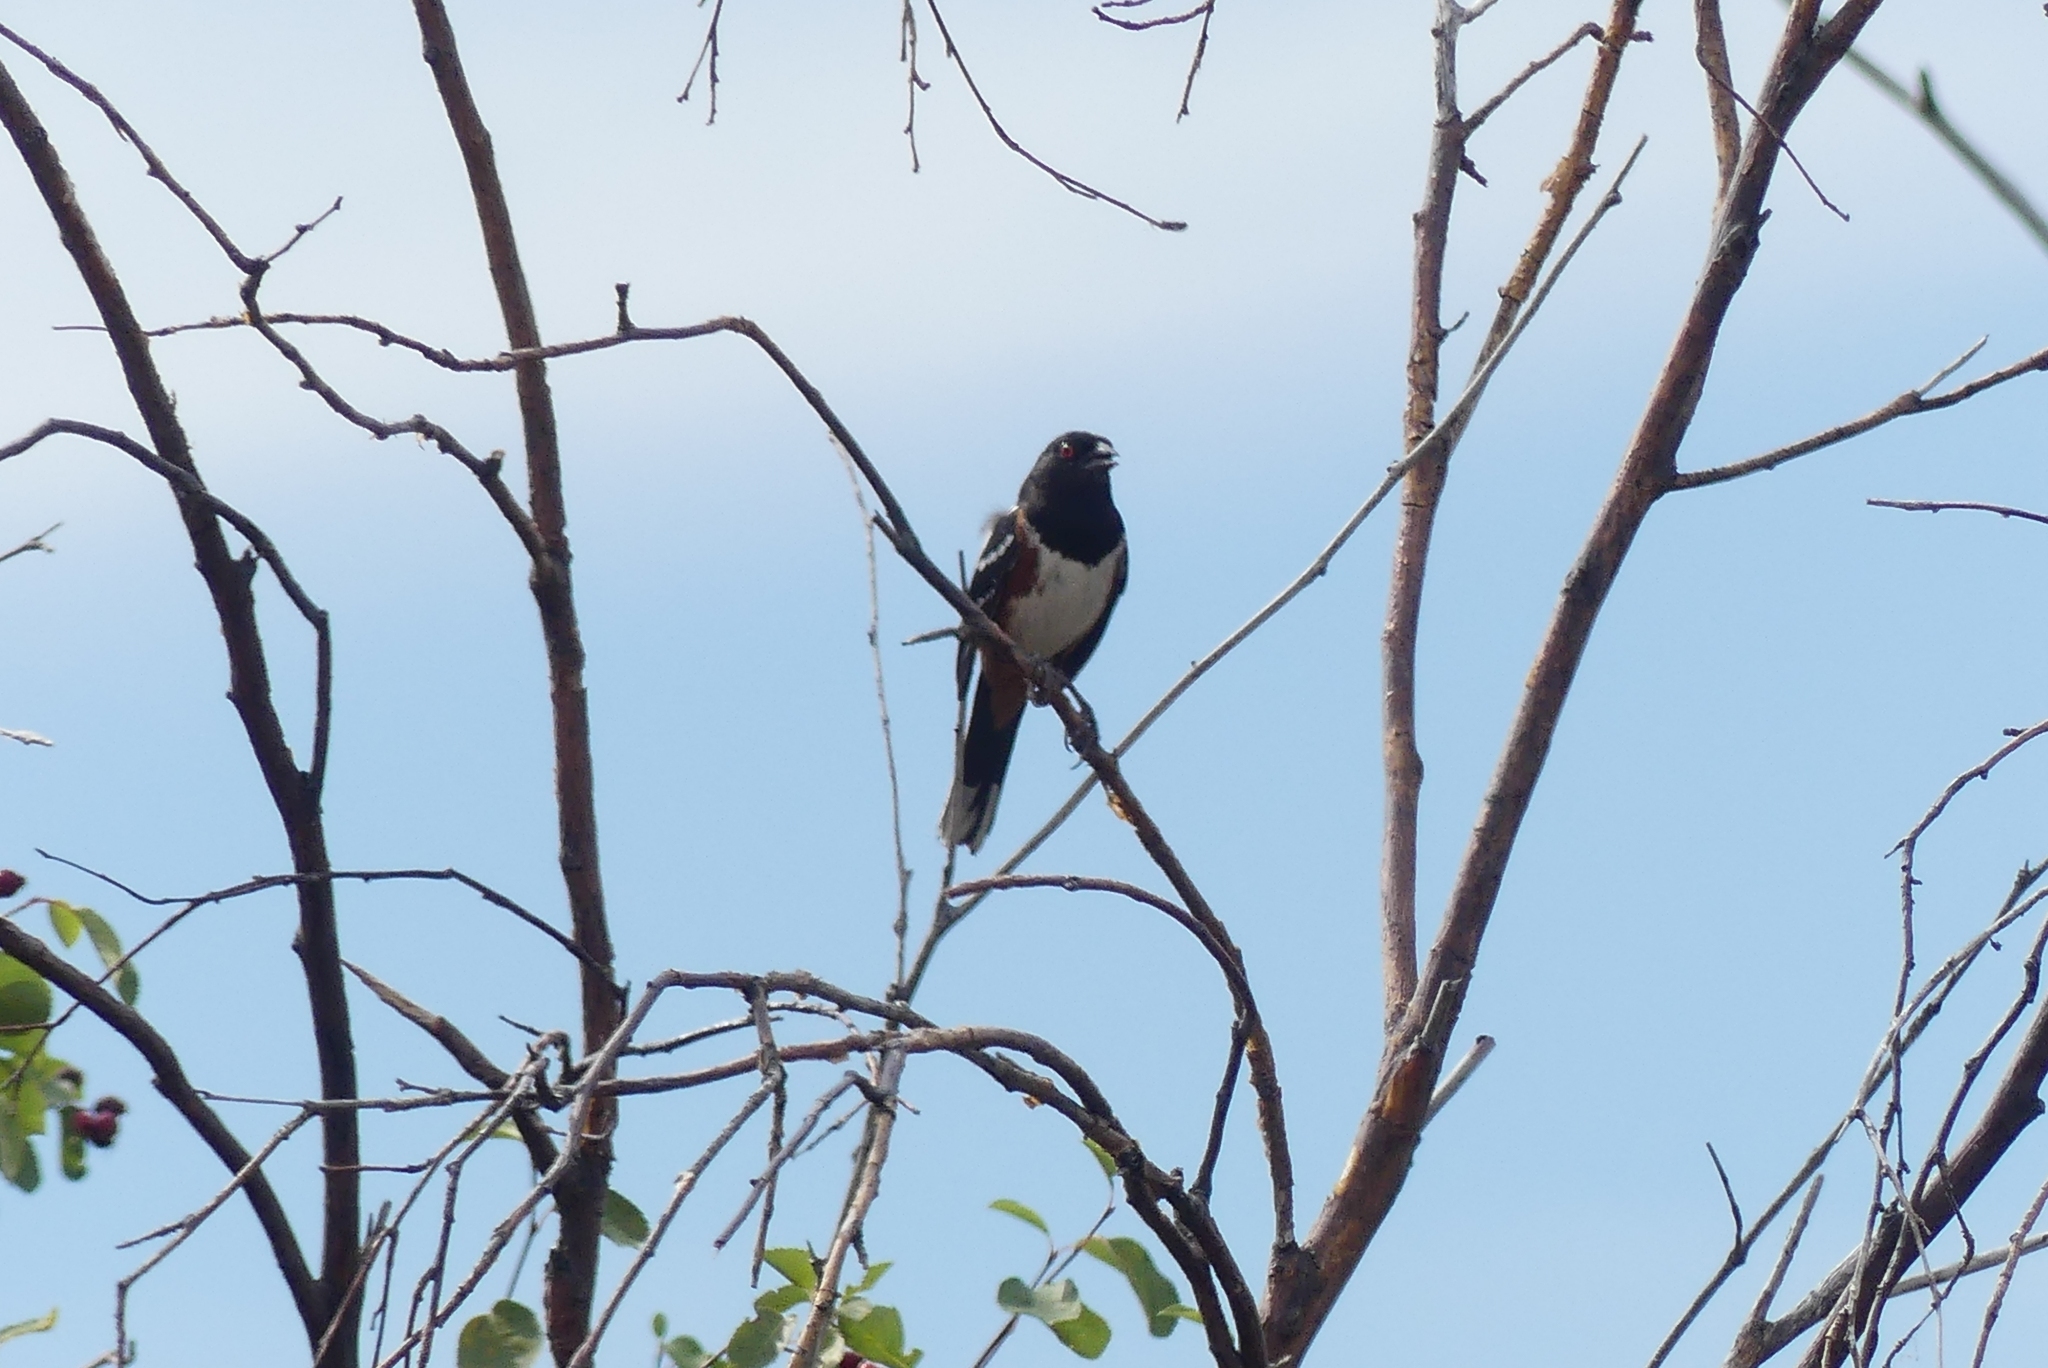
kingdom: Animalia
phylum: Chordata
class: Aves
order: Passeriformes
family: Passerellidae
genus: Pipilo
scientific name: Pipilo maculatus
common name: Spotted towhee
